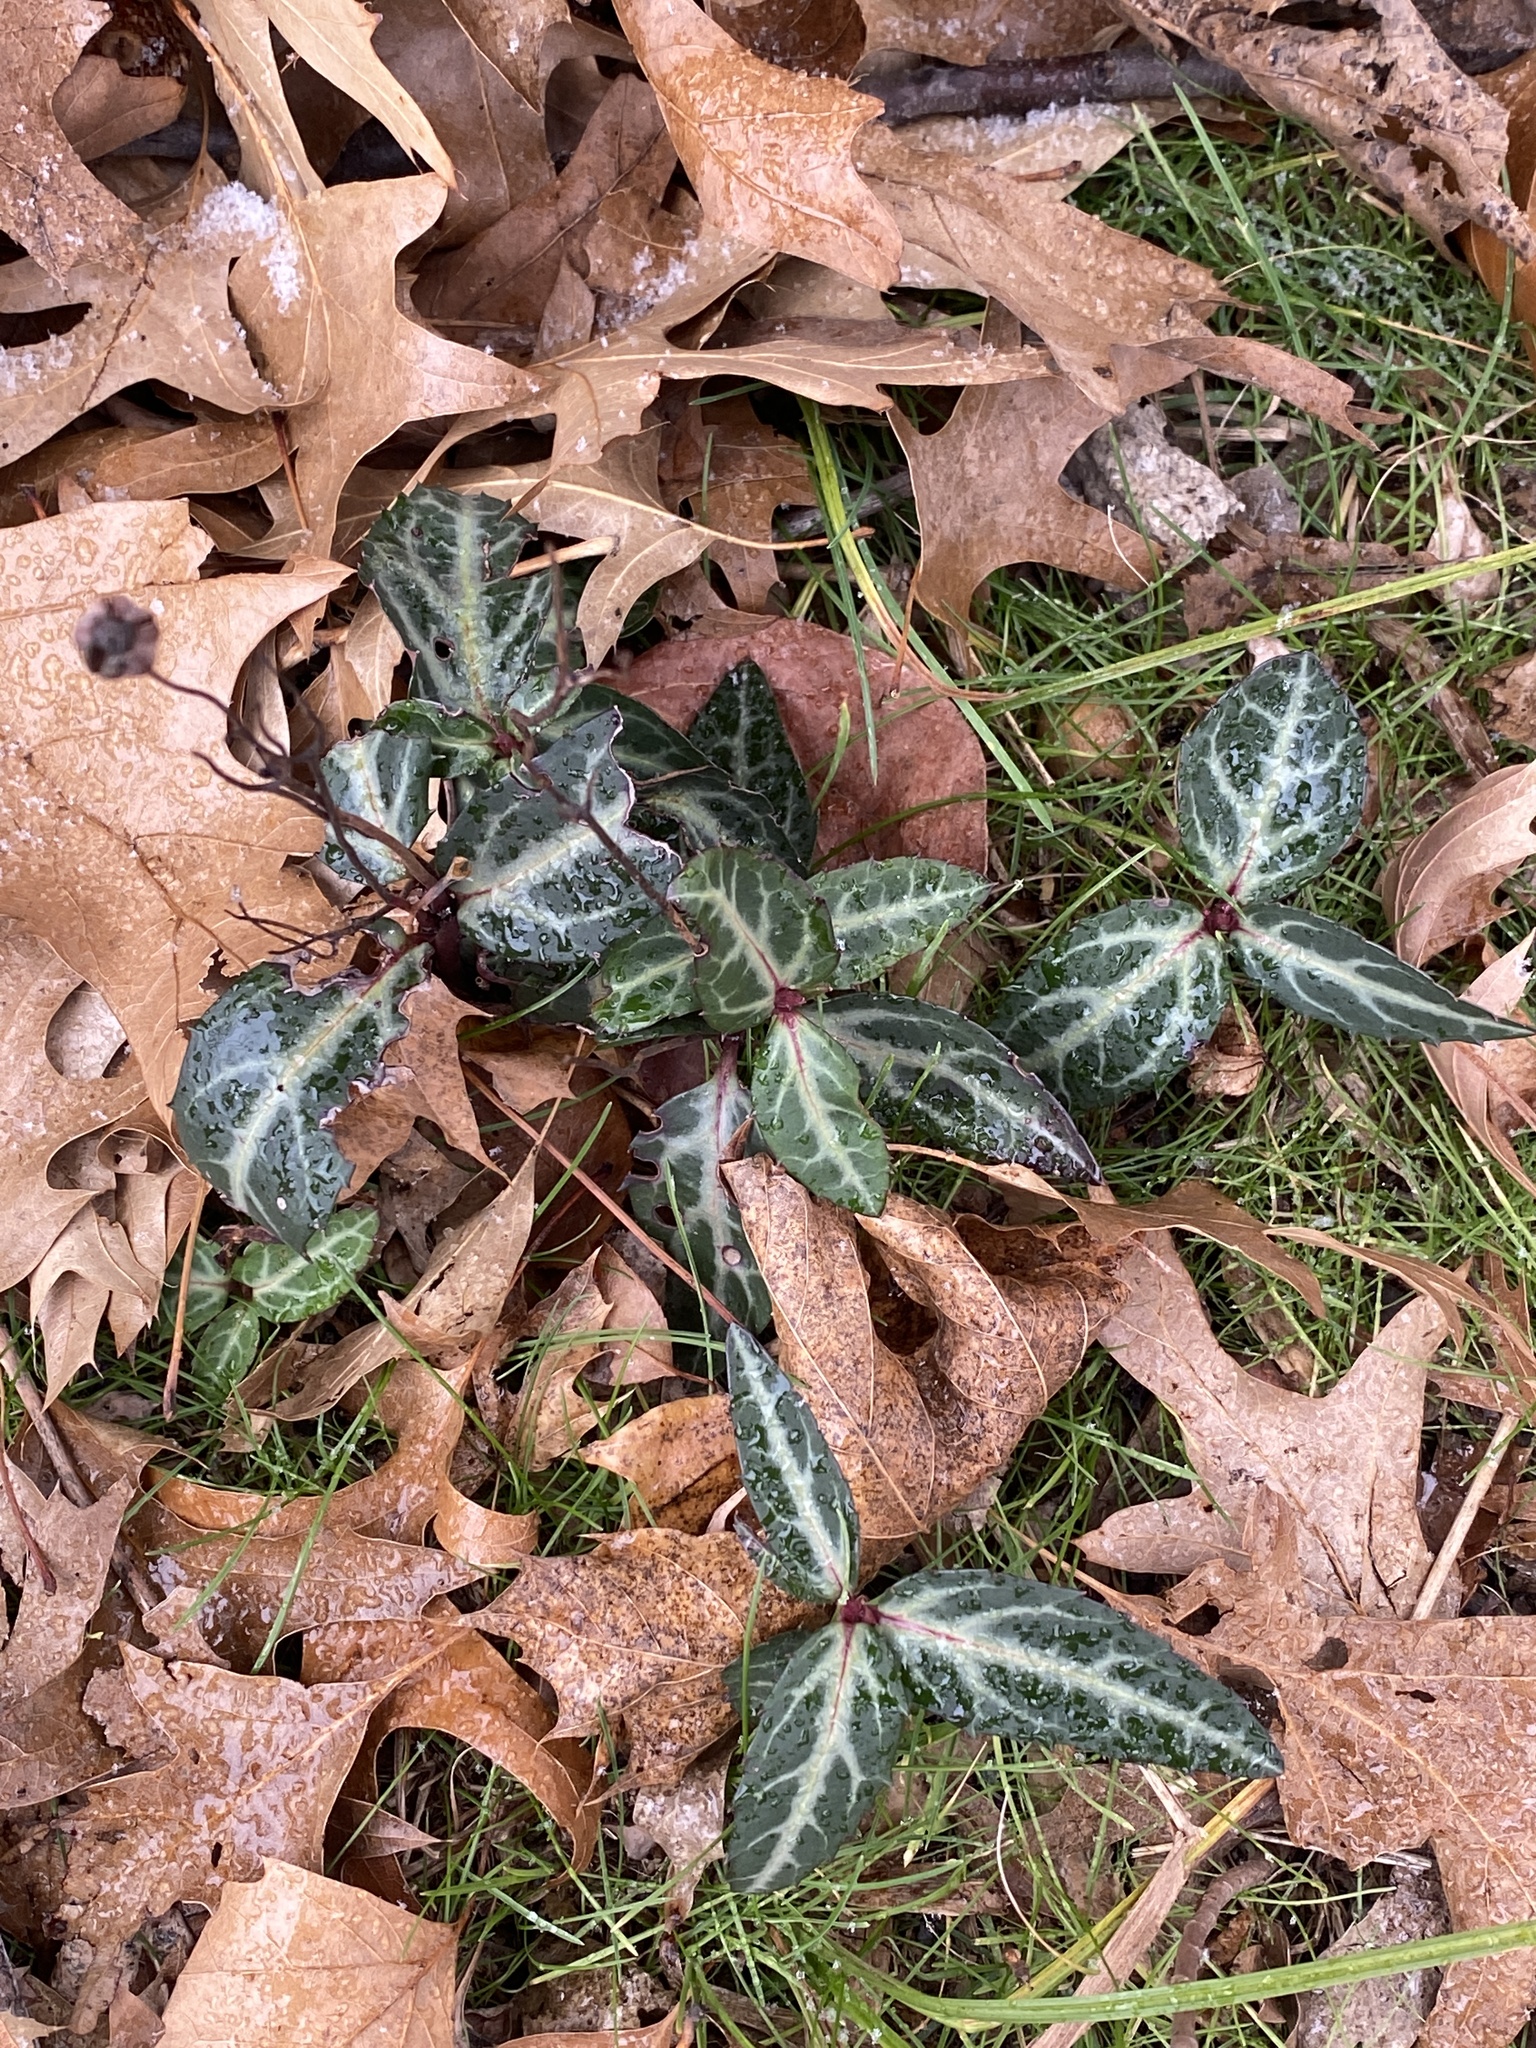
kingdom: Plantae
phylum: Tracheophyta
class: Magnoliopsida
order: Ericales
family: Ericaceae
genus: Chimaphila
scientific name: Chimaphila maculata
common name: Spotted pipsissewa
